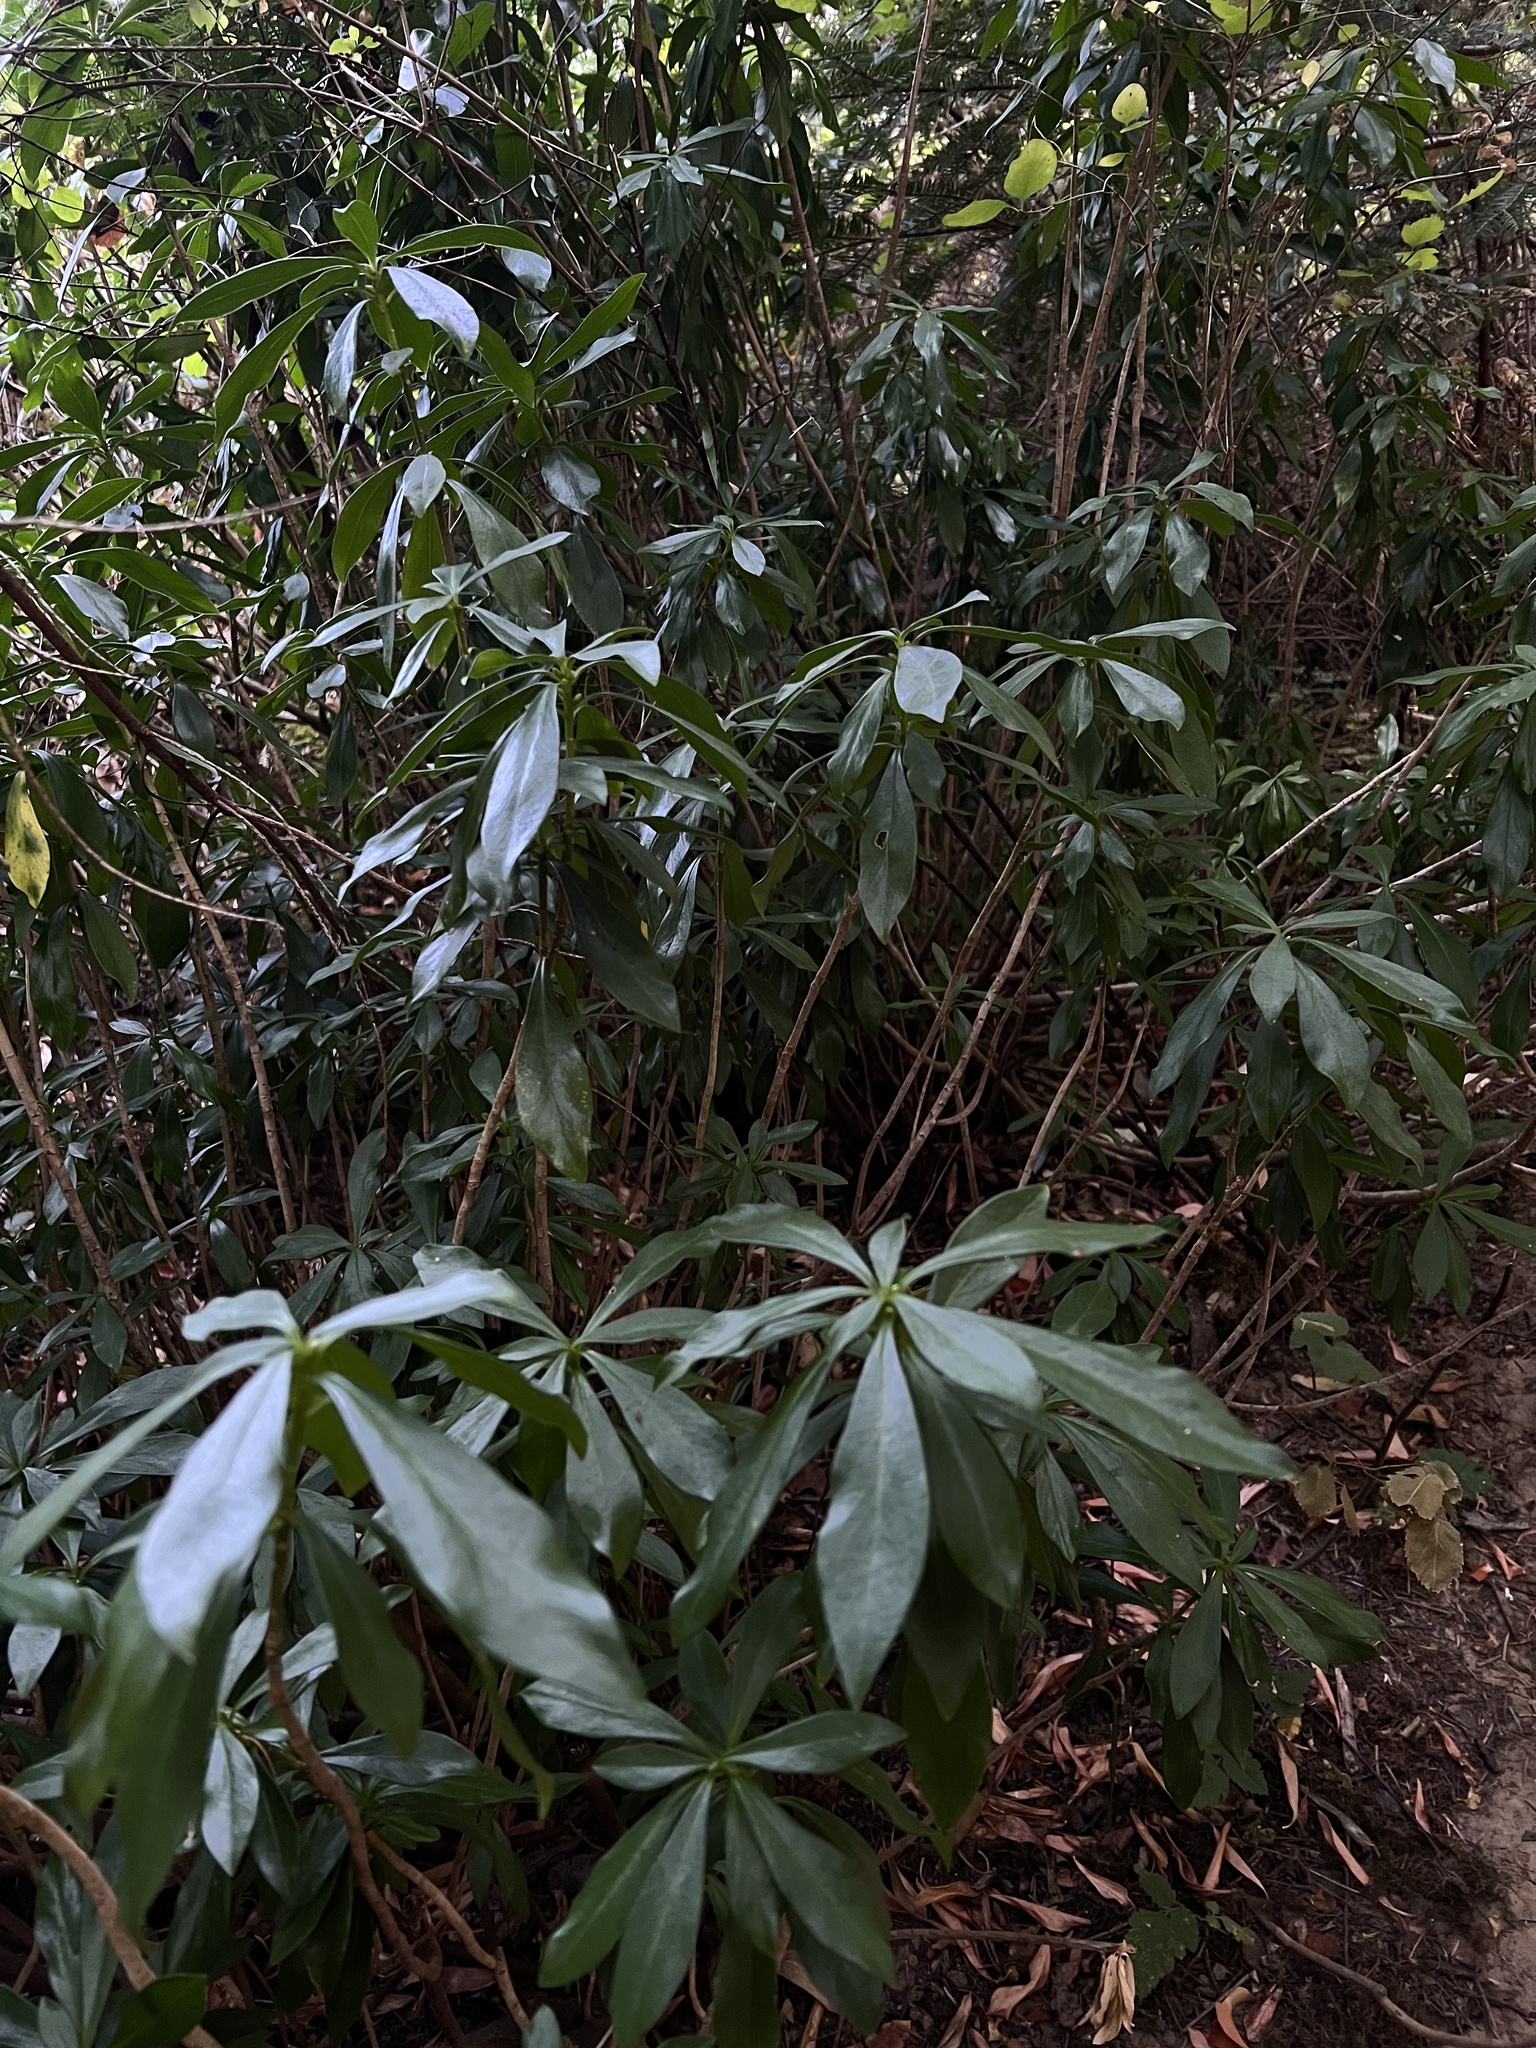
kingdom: Plantae
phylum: Tracheophyta
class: Magnoliopsida
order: Malvales
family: Thymelaeaceae
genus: Daphne
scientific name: Daphne laureola
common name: Spurge-laurel
